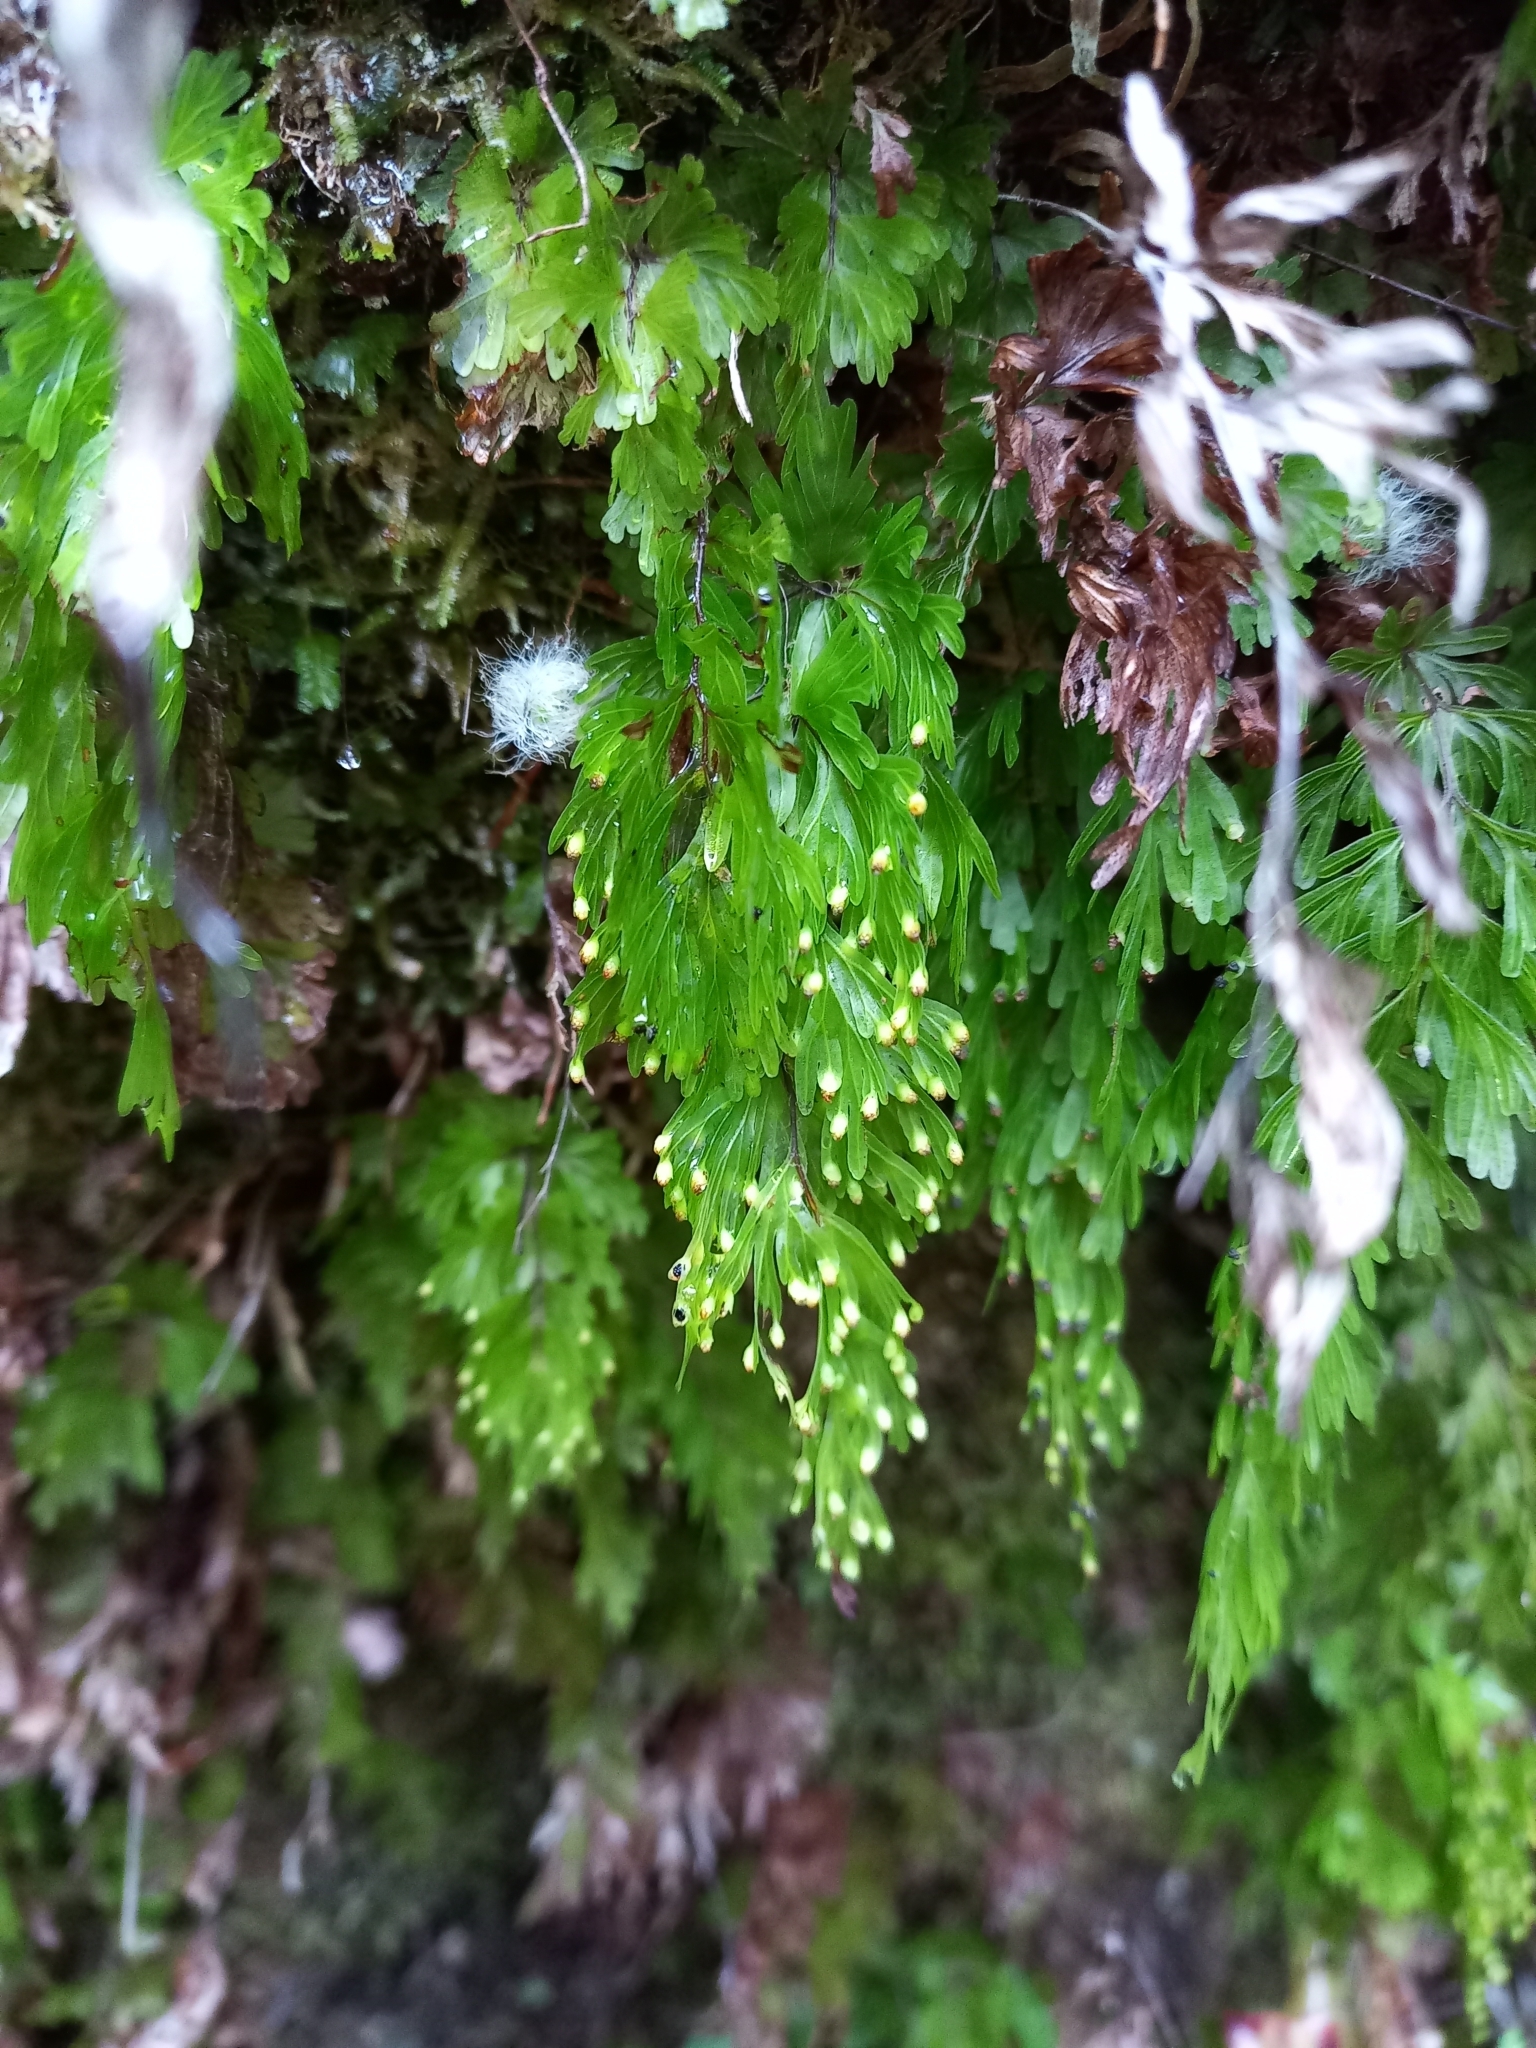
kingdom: Plantae
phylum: Tracheophyta
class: Polypodiopsida
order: Hymenophyllales
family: Hymenophyllaceae
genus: Hymenophyllum
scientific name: Hymenophyllum flabellatum
